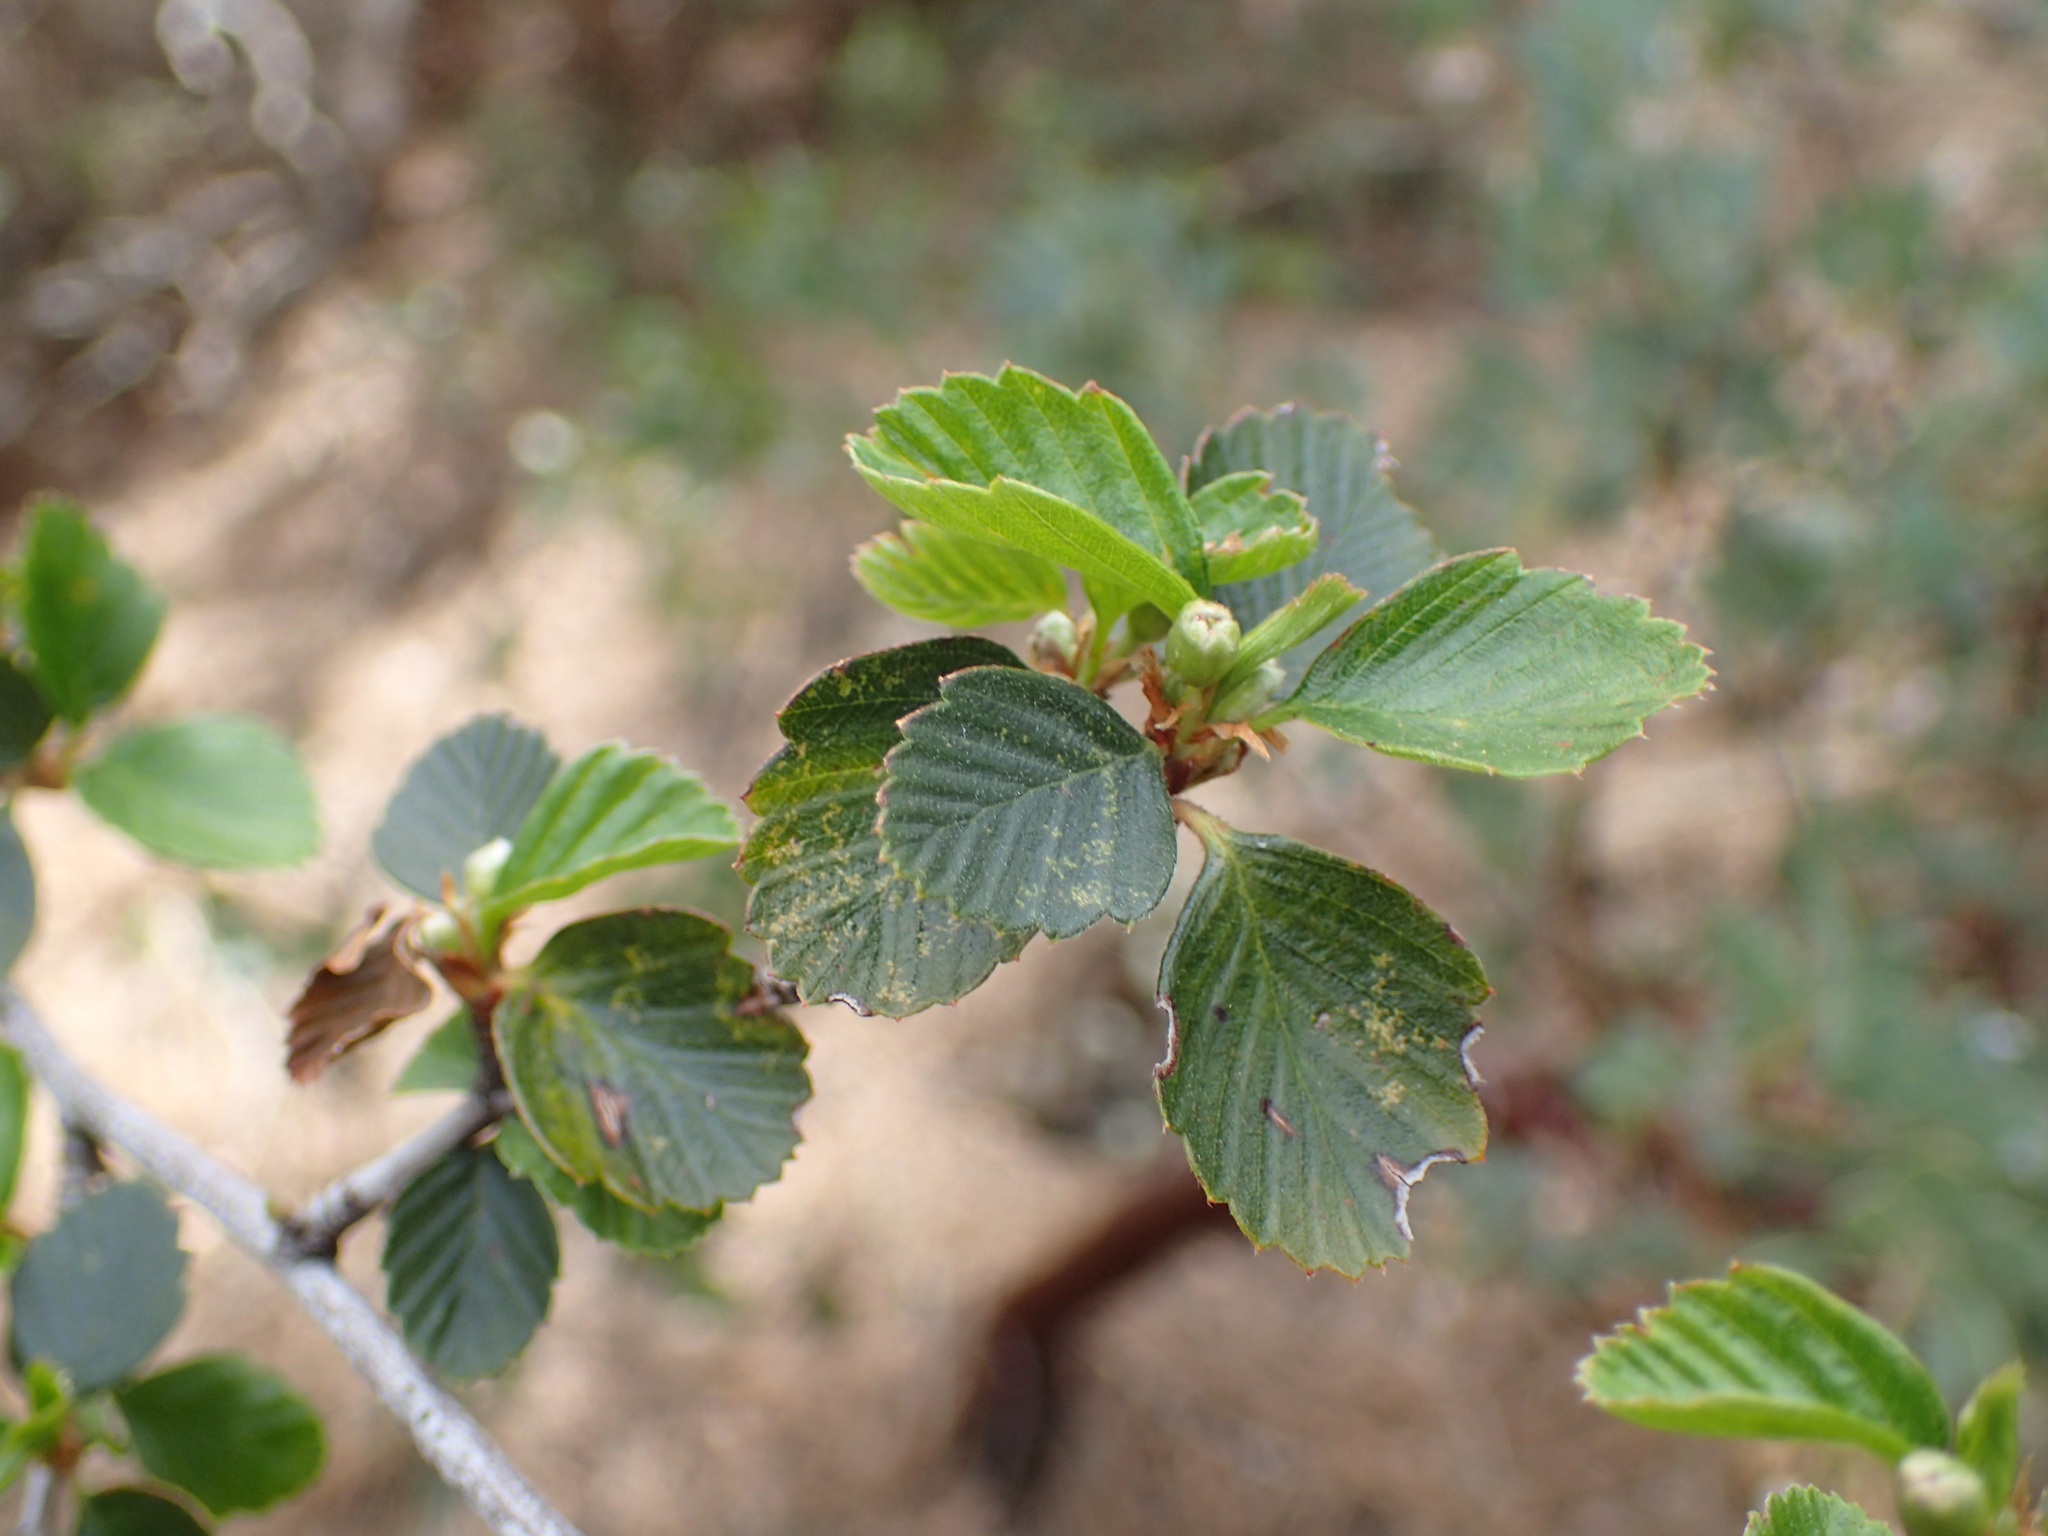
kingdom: Plantae
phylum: Tracheophyta
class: Magnoliopsida
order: Rosales
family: Rosaceae
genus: Cercocarpus
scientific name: Cercocarpus betuloides
